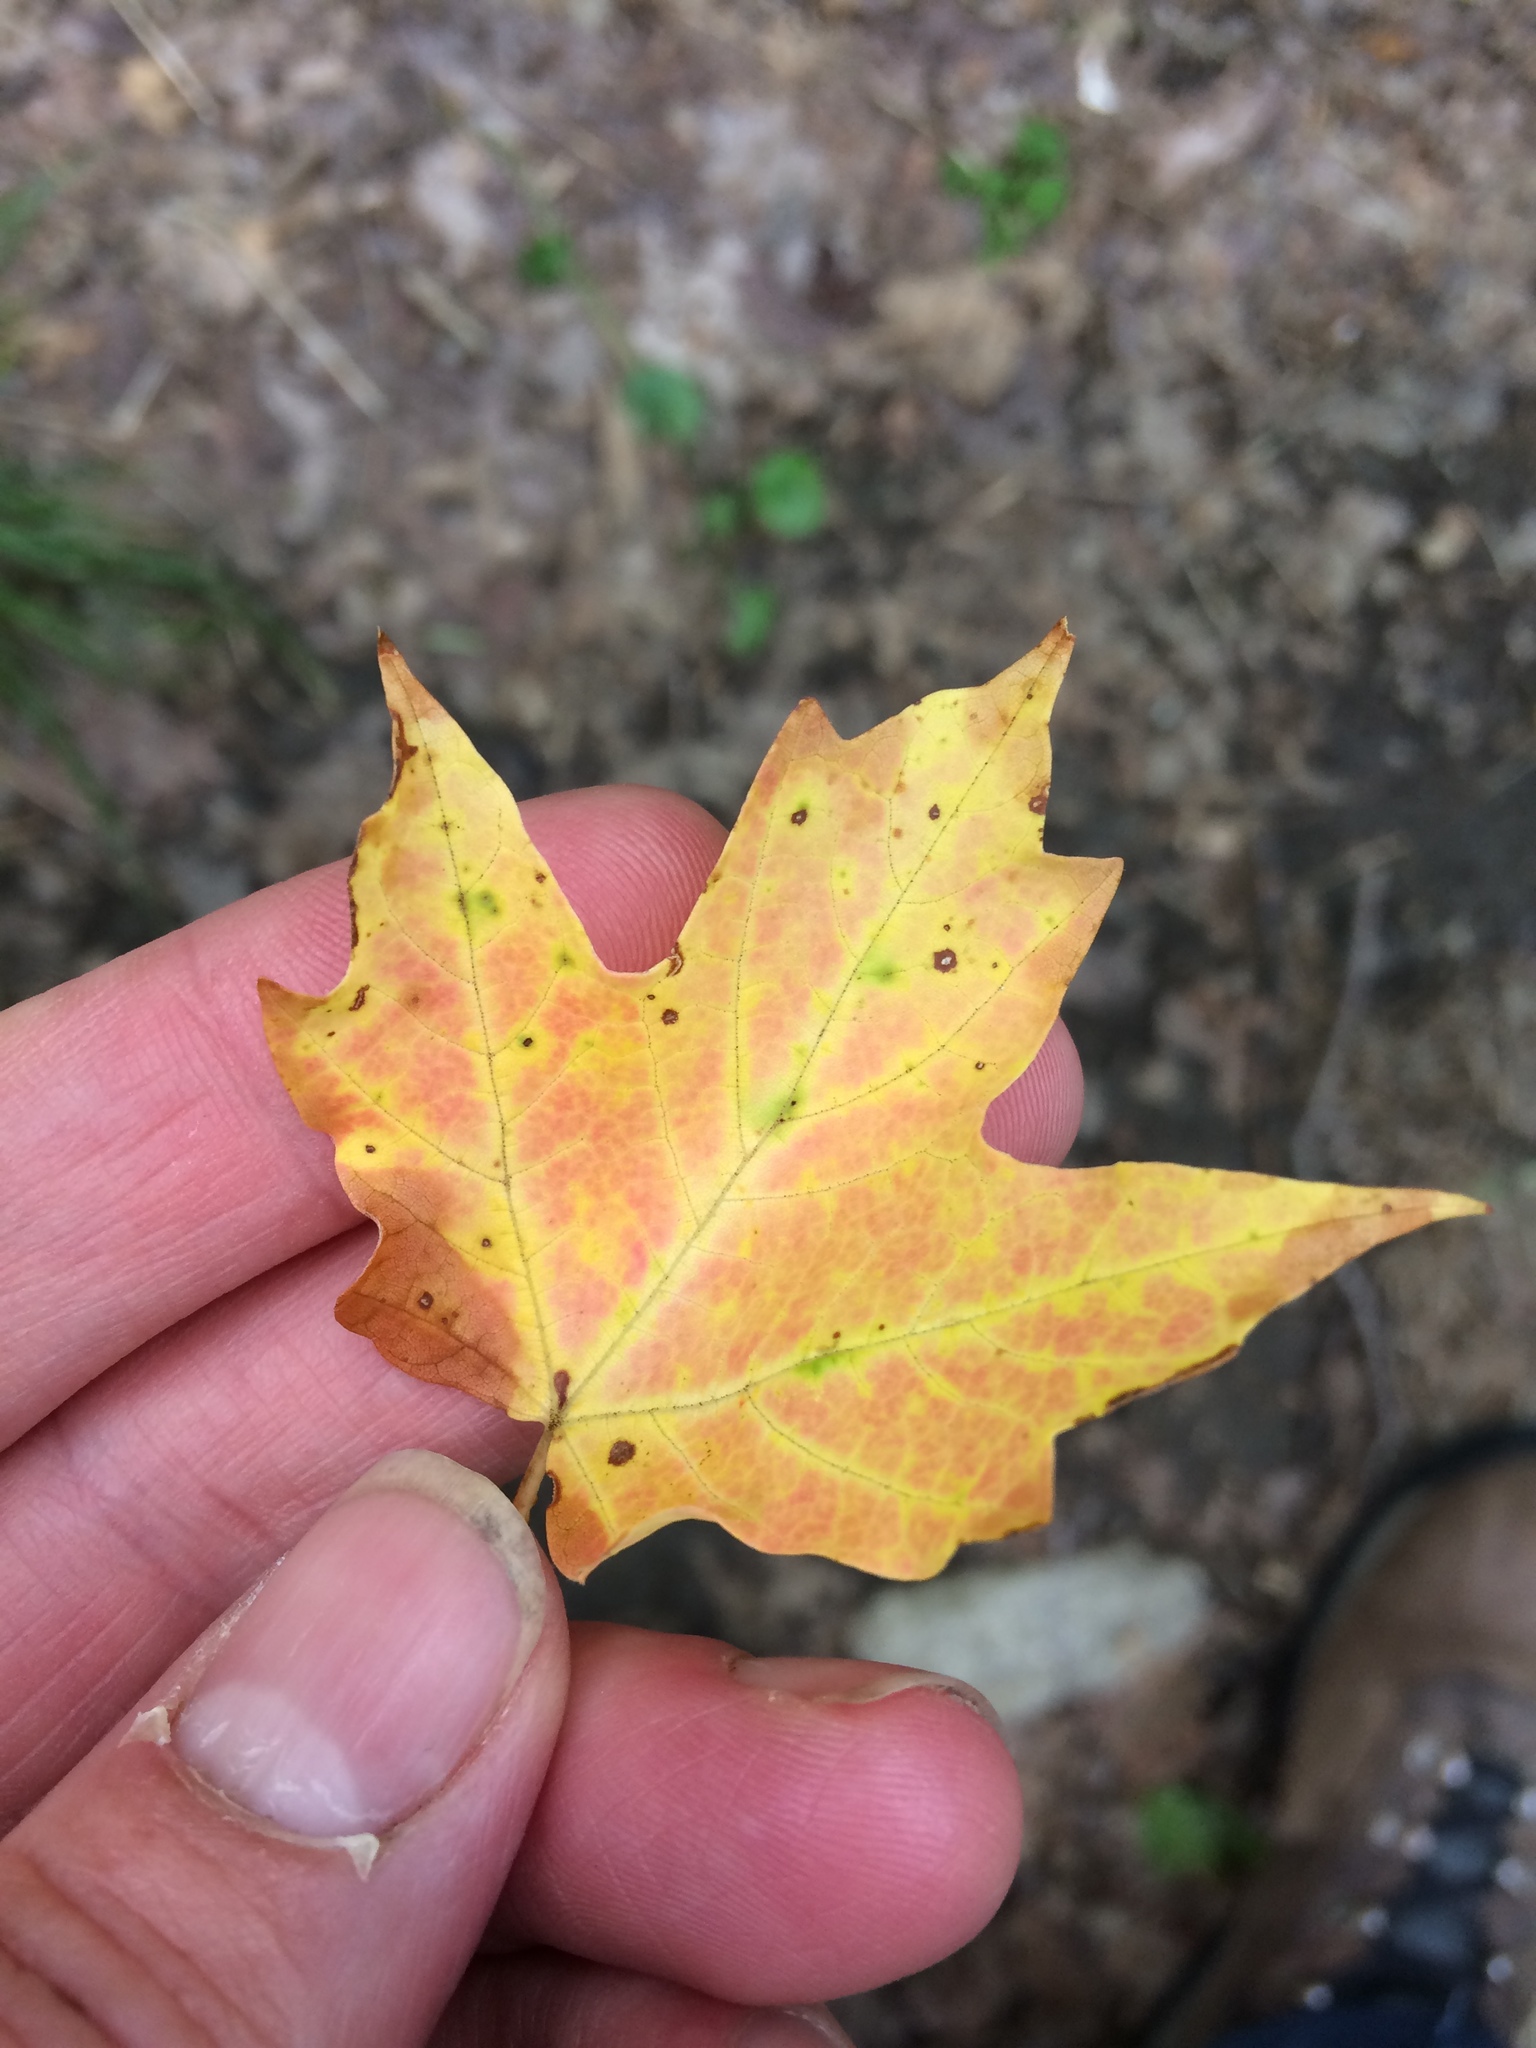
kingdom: Plantae
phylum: Tracheophyta
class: Magnoliopsida
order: Sapindales
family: Sapindaceae
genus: Acer
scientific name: Acer saccharum
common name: Sugar maple
